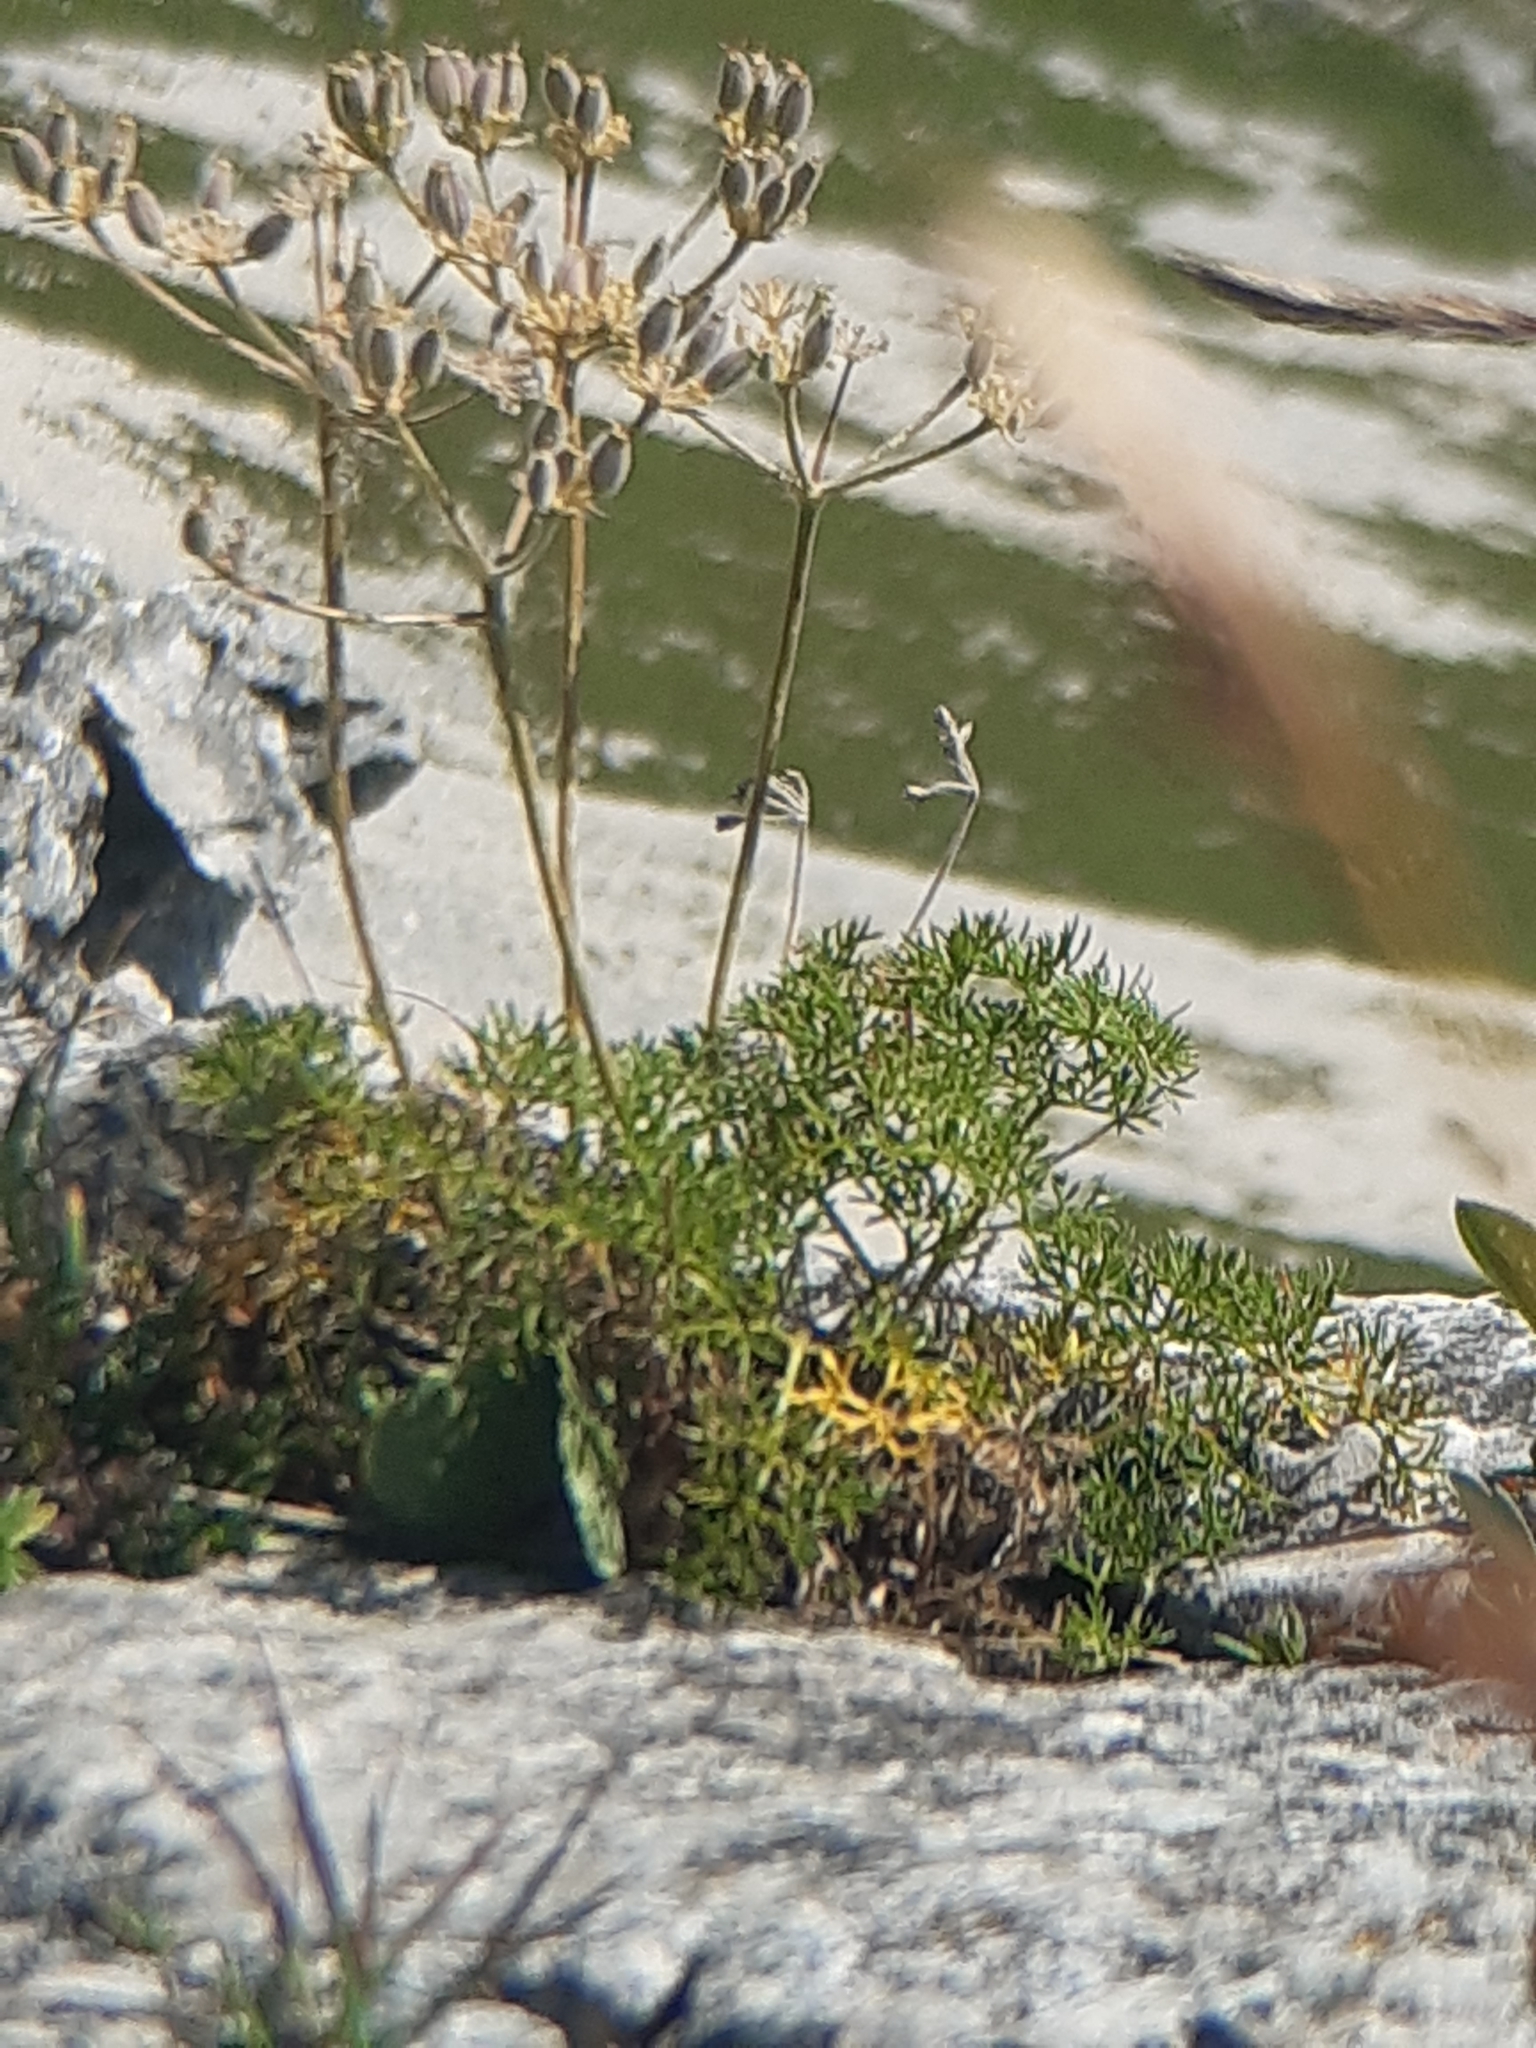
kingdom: Plantae
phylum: Tracheophyta
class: Magnoliopsida
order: Apiales
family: Apiaceae
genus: Athamanta
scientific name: Athamanta cretensis
